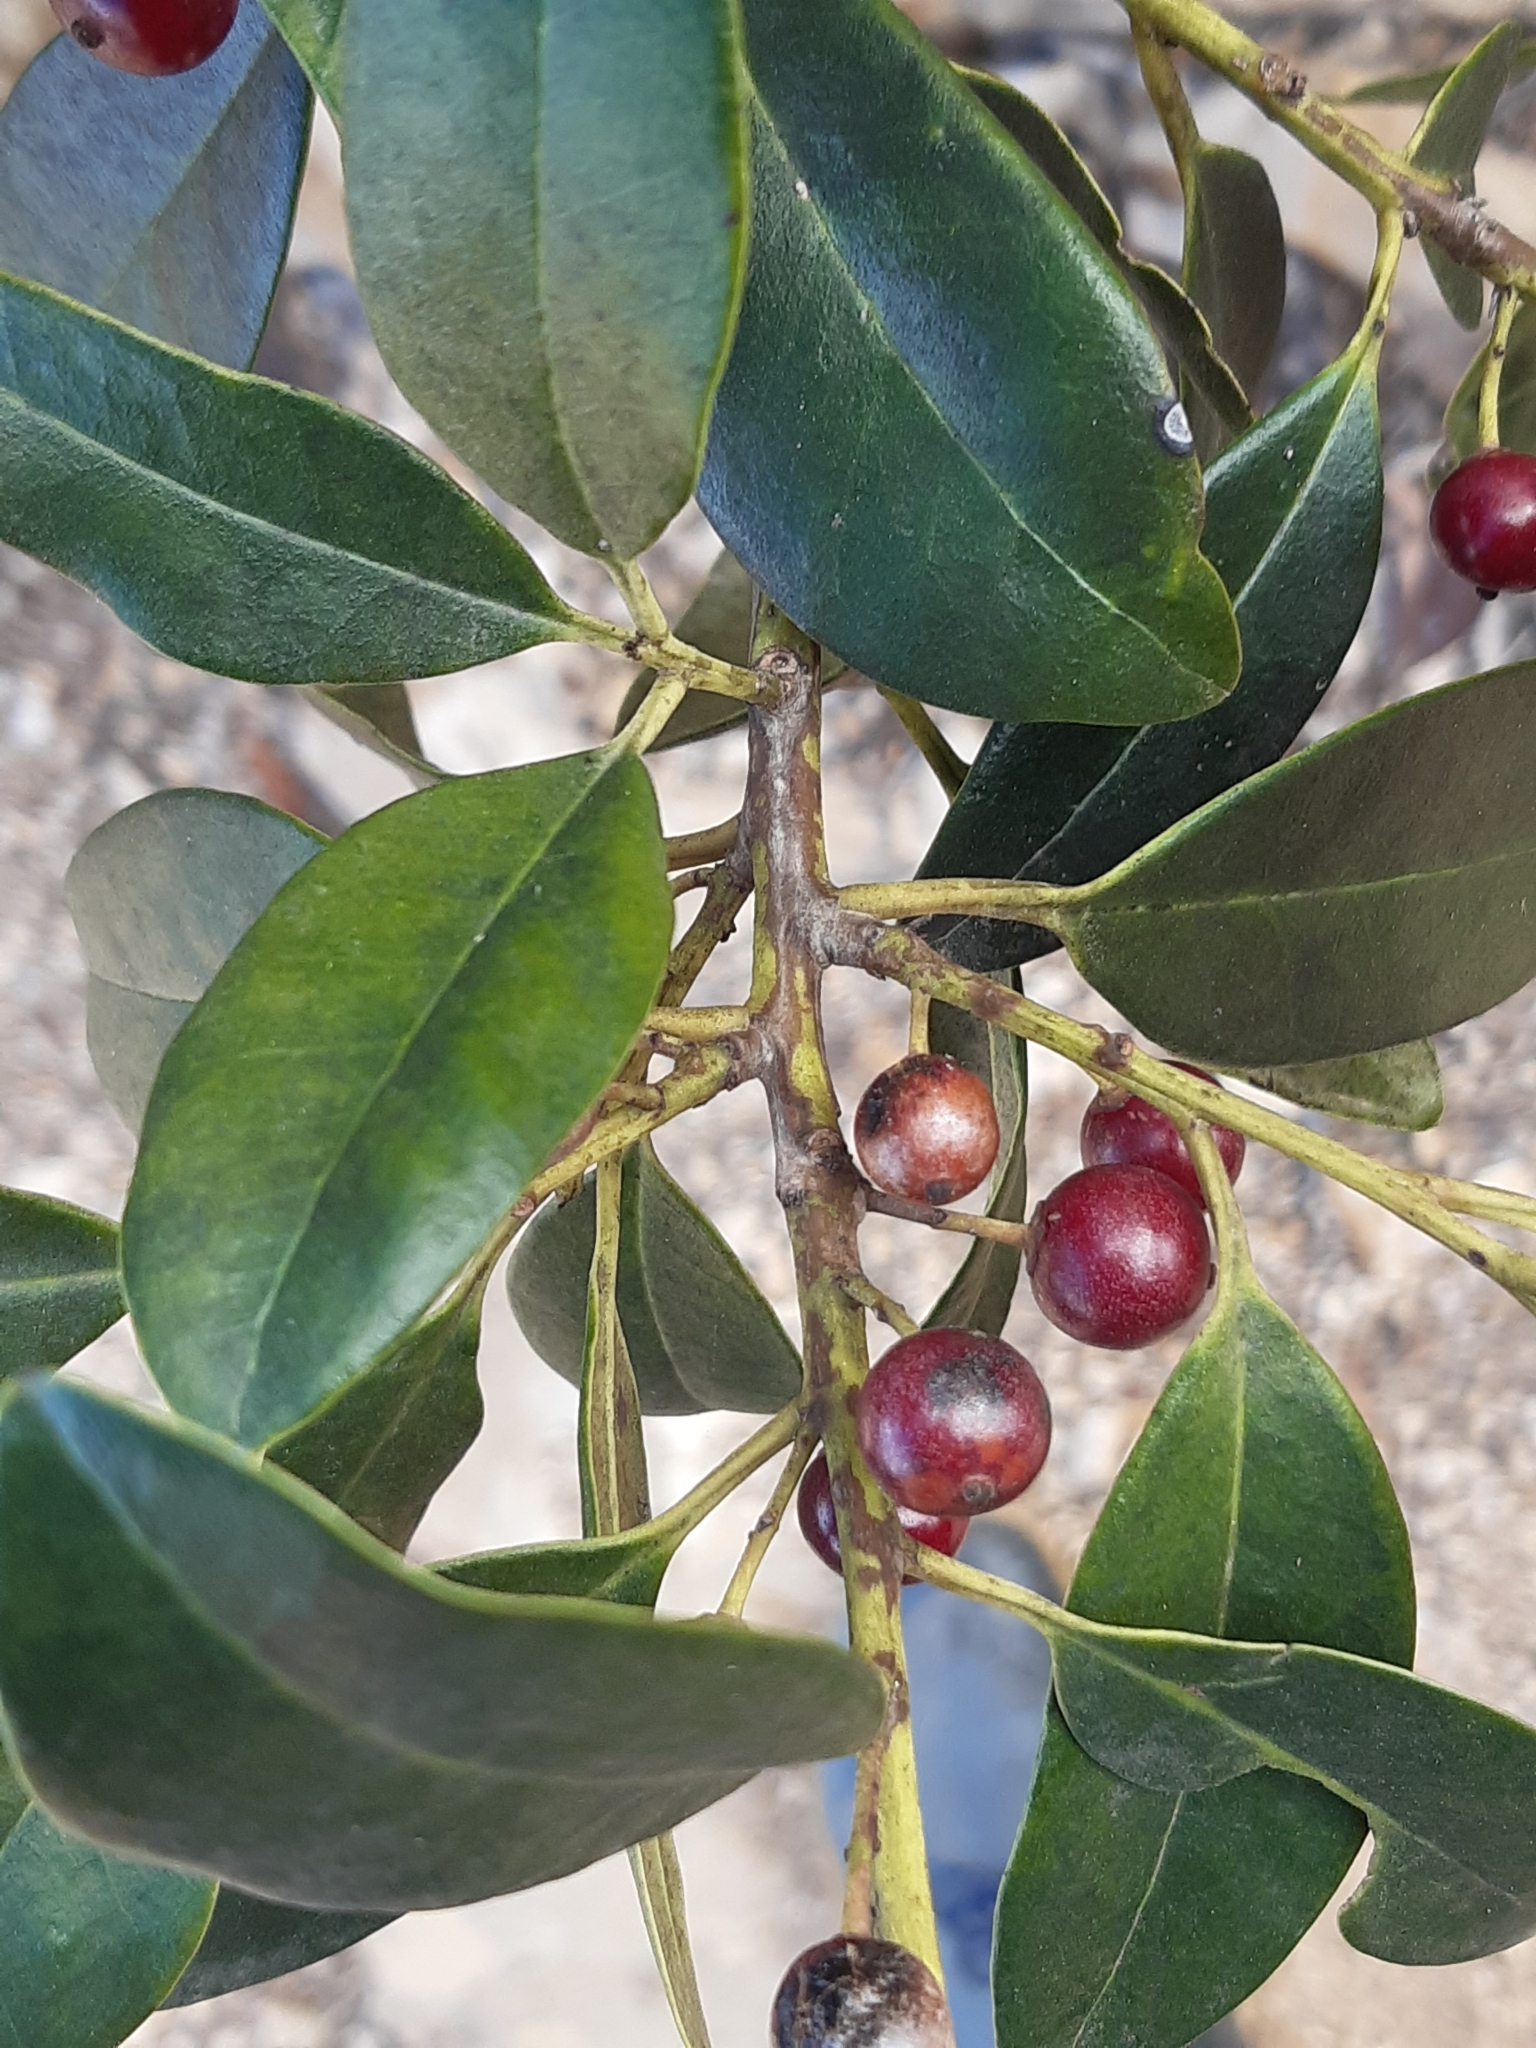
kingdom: Plantae
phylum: Tracheophyta
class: Magnoliopsida
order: Aquifoliales
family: Aquifoliaceae
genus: Ilex
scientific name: Ilex canariensis
